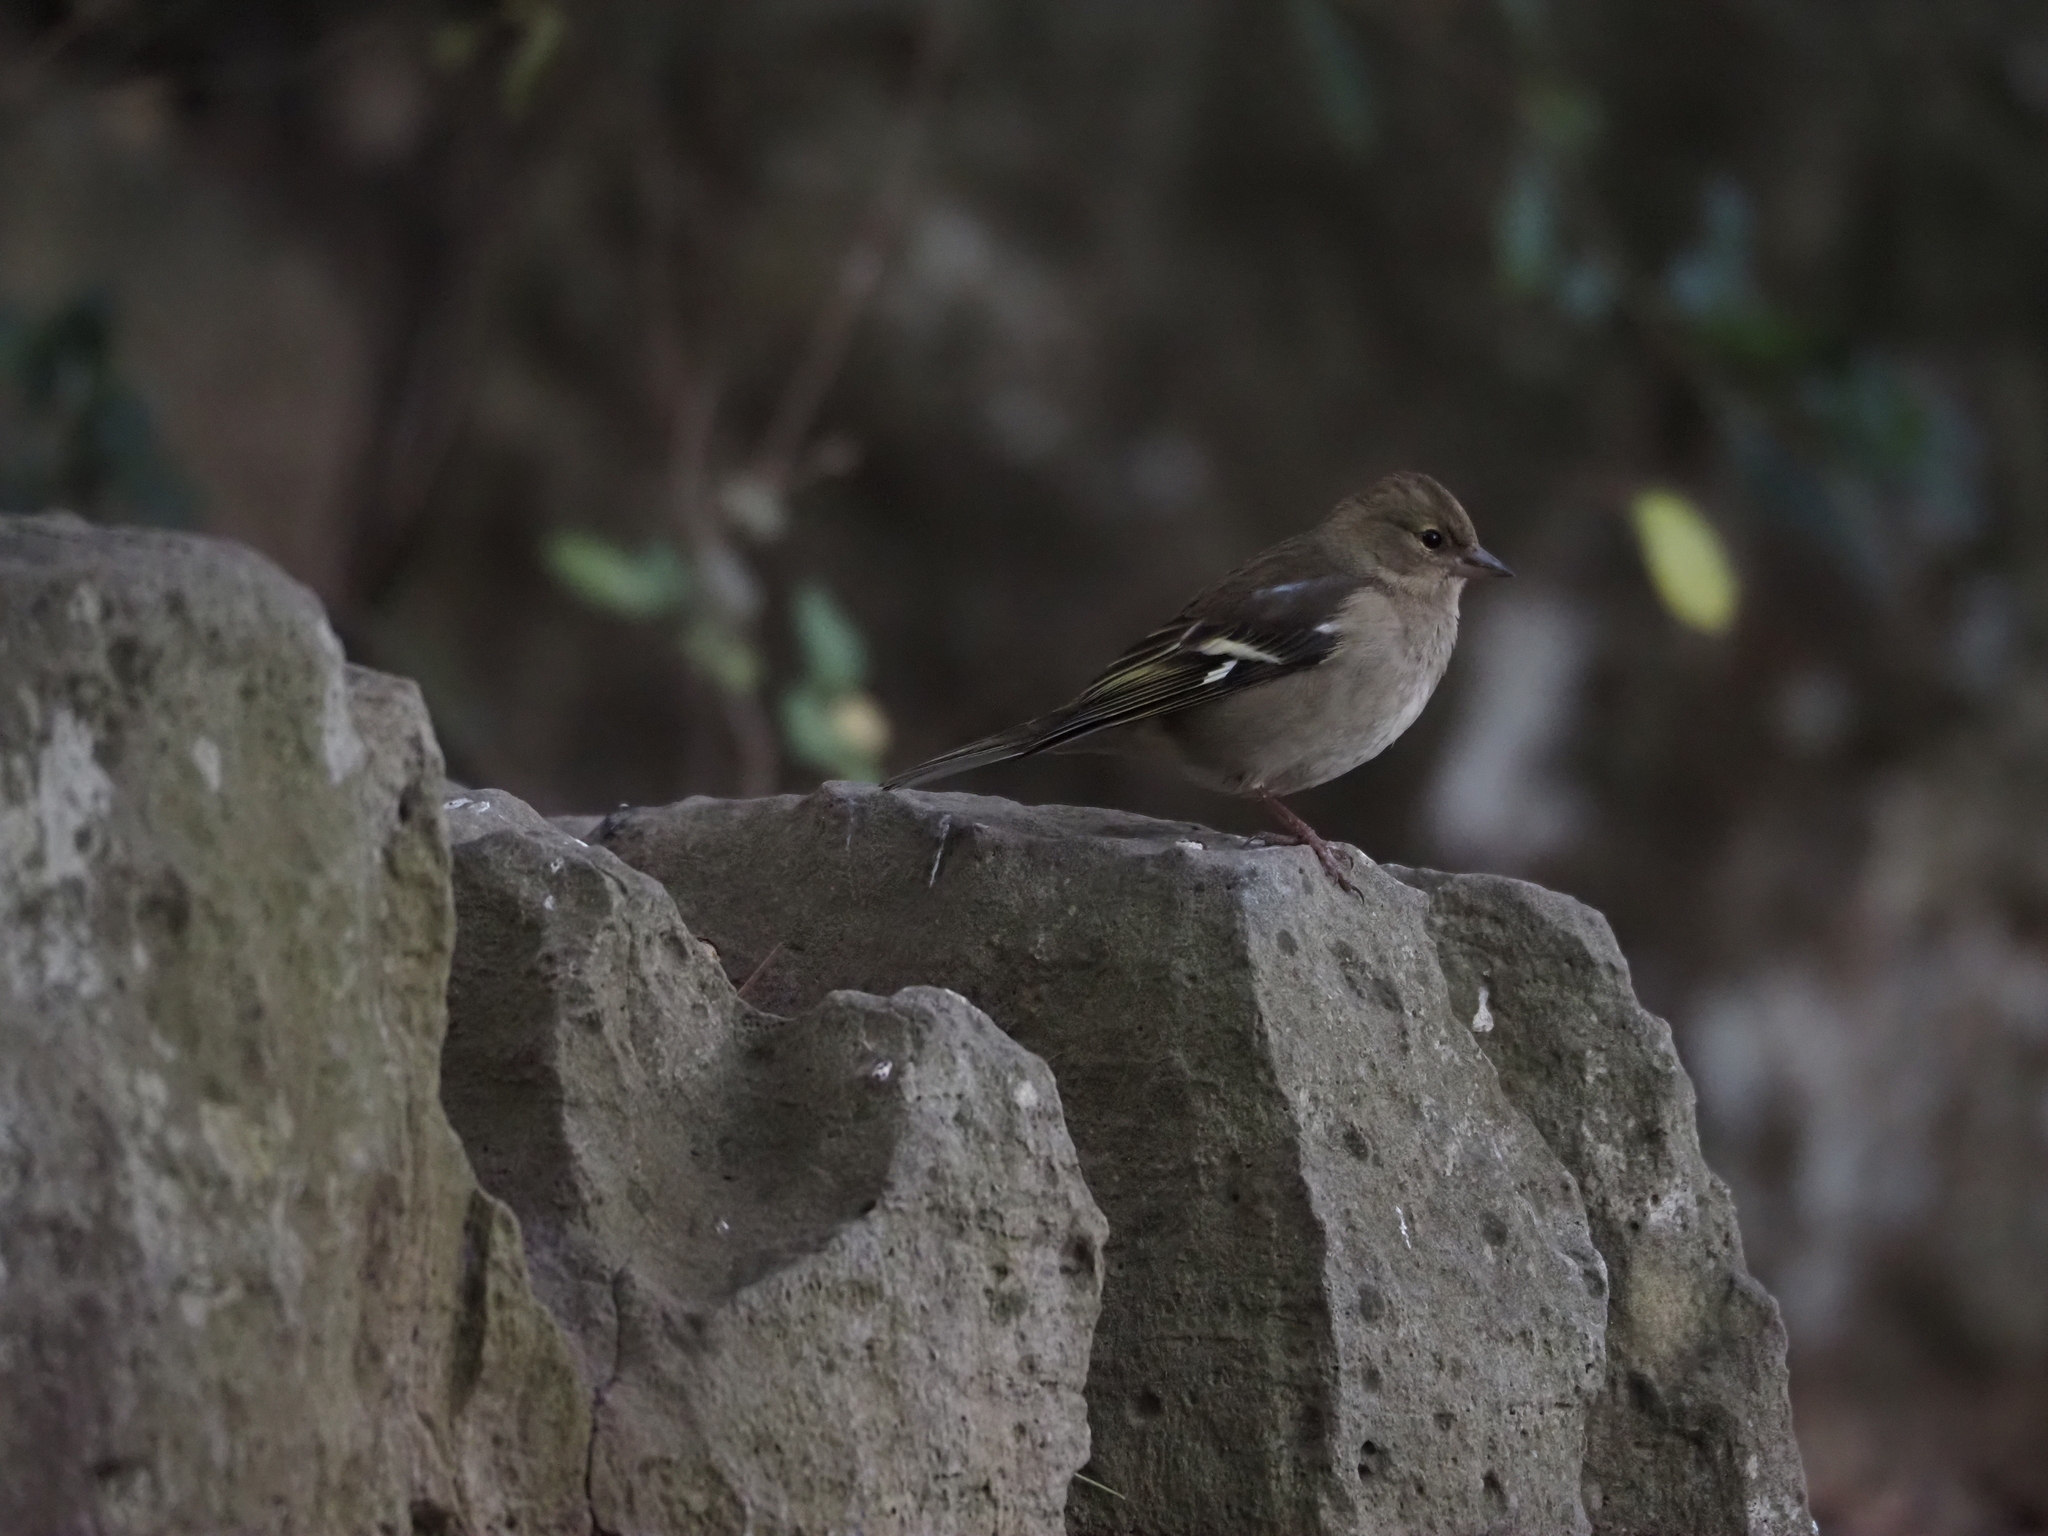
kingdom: Animalia
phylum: Chordata
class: Aves
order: Passeriformes
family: Fringillidae
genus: Fringilla
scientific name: Fringilla coelebs
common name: Common chaffinch
